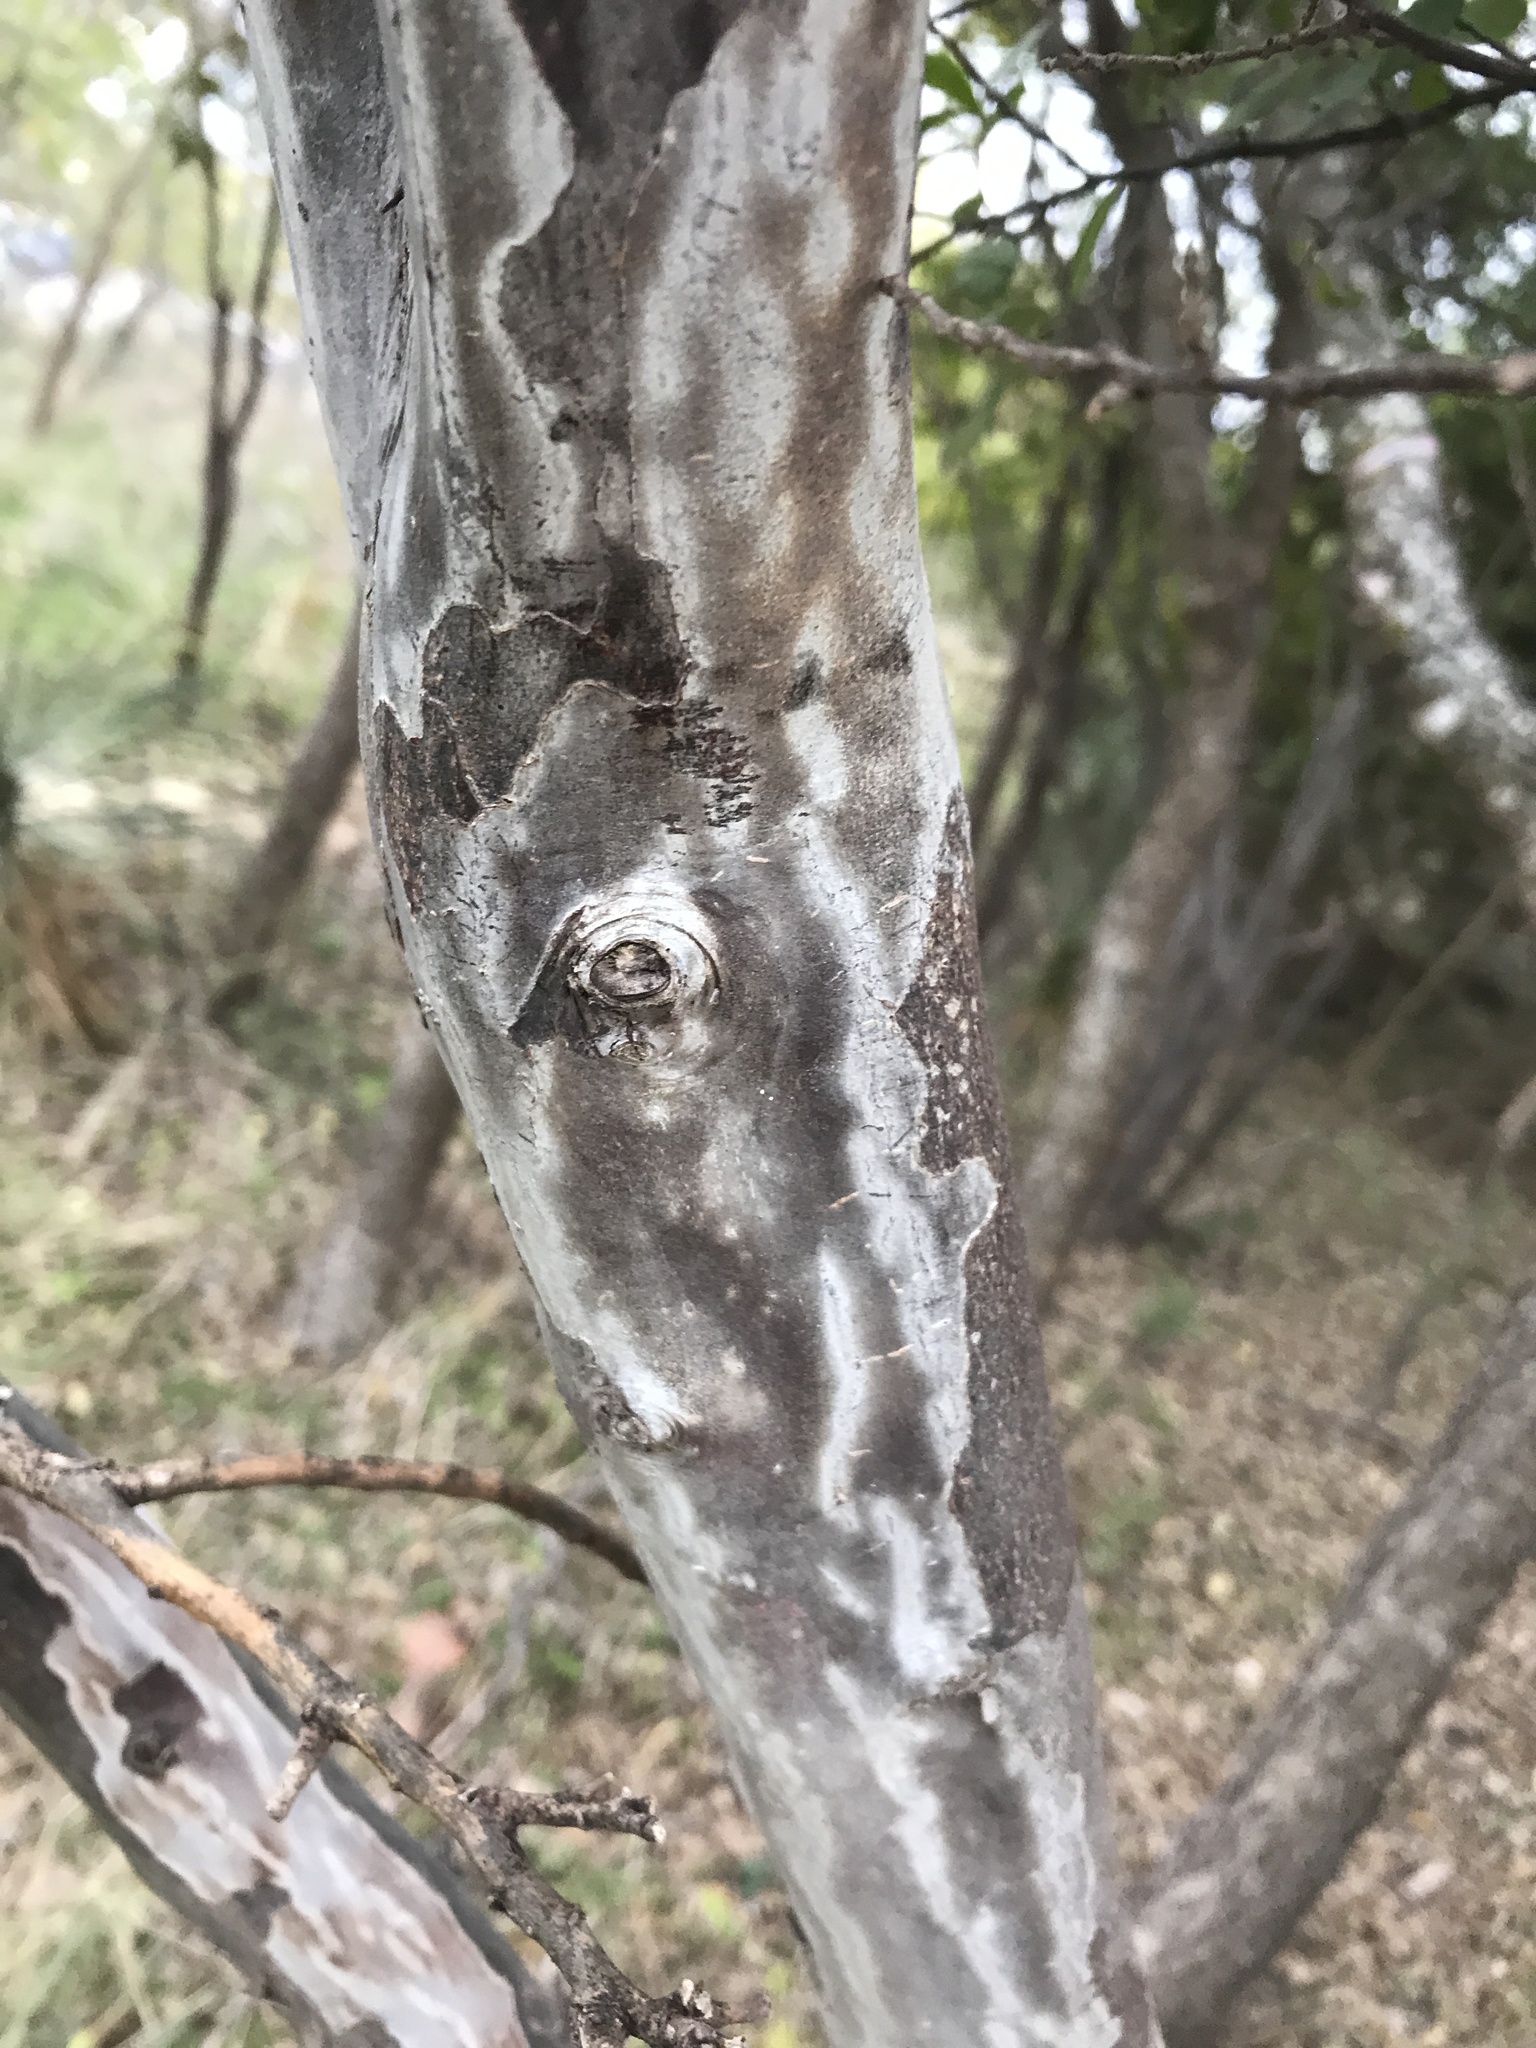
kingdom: Plantae
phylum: Tracheophyta
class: Magnoliopsida
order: Ericales
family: Ebenaceae
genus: Diospyros
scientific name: Diospyros texana
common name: Texas persimmon
